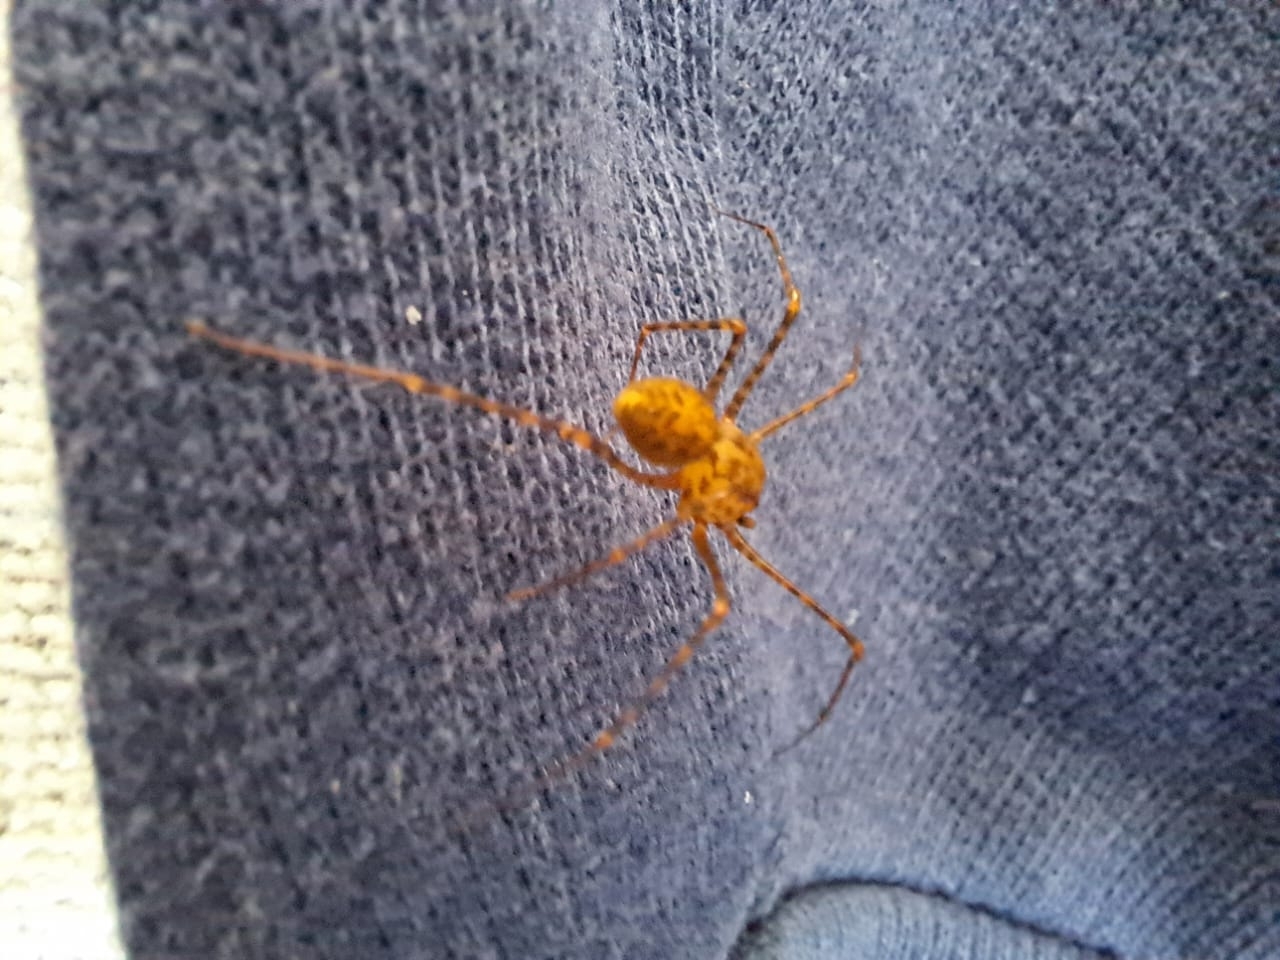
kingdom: Animalia
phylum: Arthropoda
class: Arachnida
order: Araneae
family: Scytodidae
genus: Scytodes
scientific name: Scytodes globula
